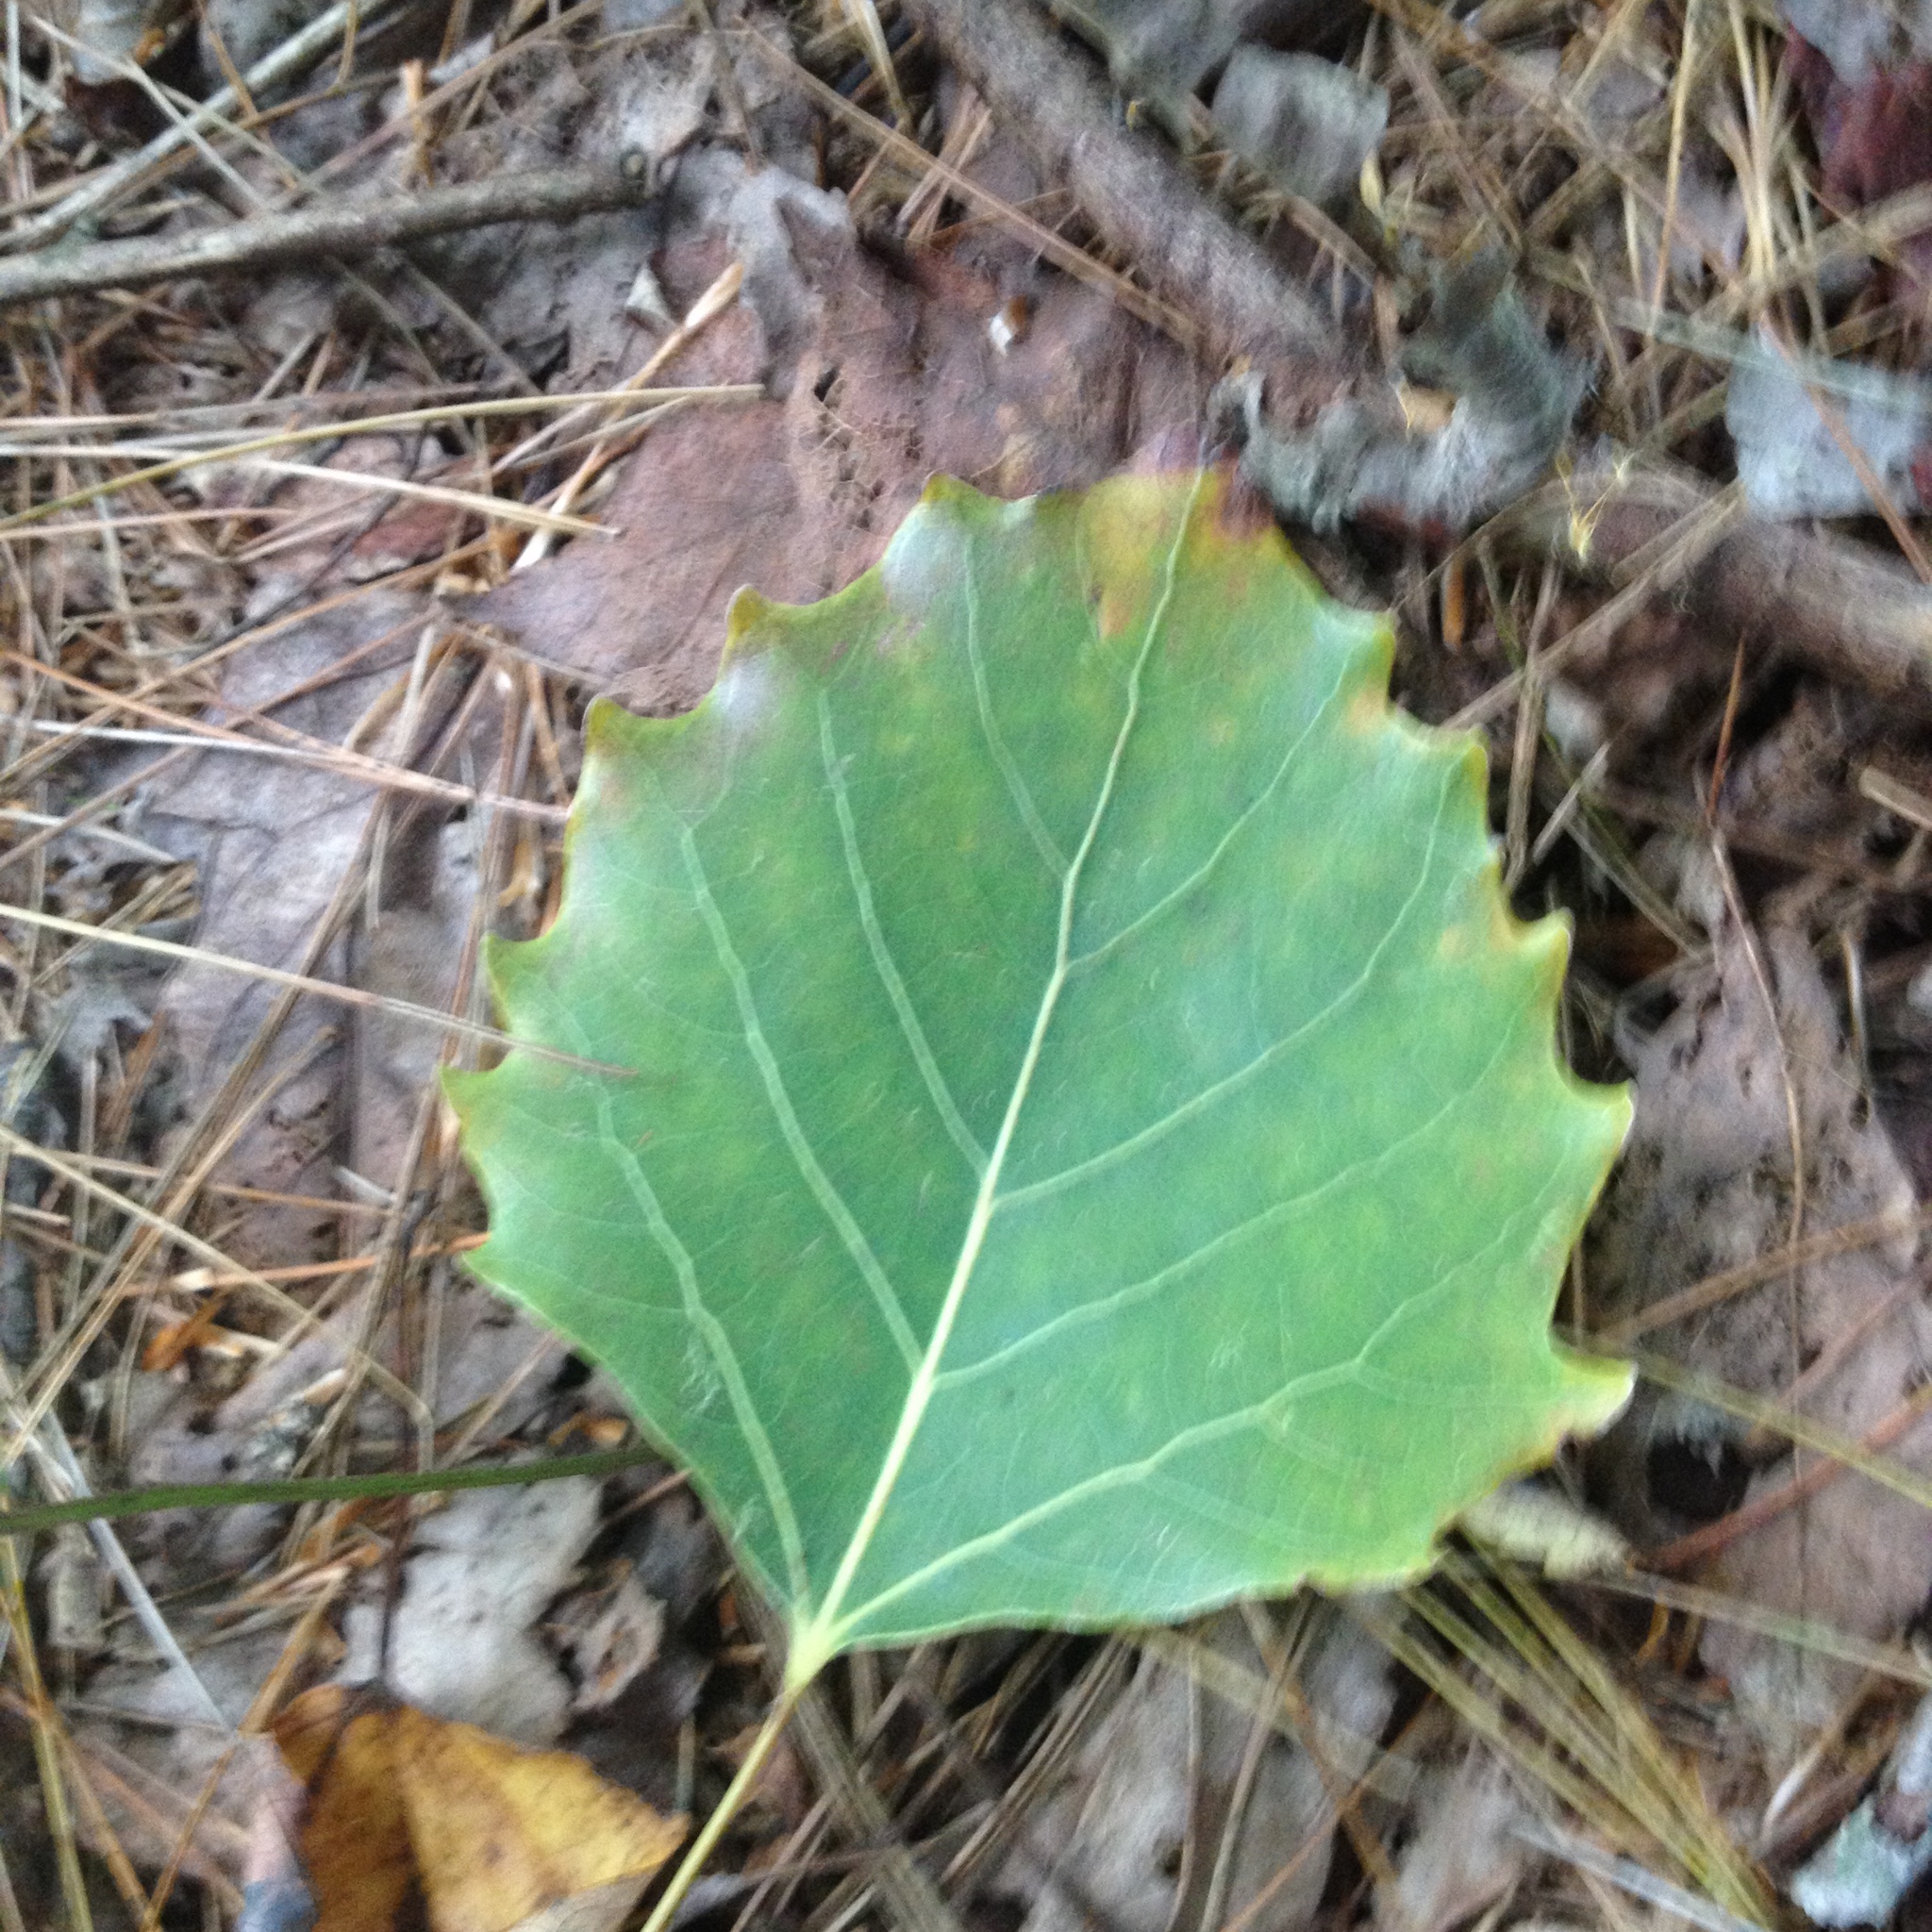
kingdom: Plantae
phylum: Tracheophyta
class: Magnoliopsida
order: Malpighiales
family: Salicaceae
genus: Populus
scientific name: Populus grandidentata
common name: Bigtooth aspen
